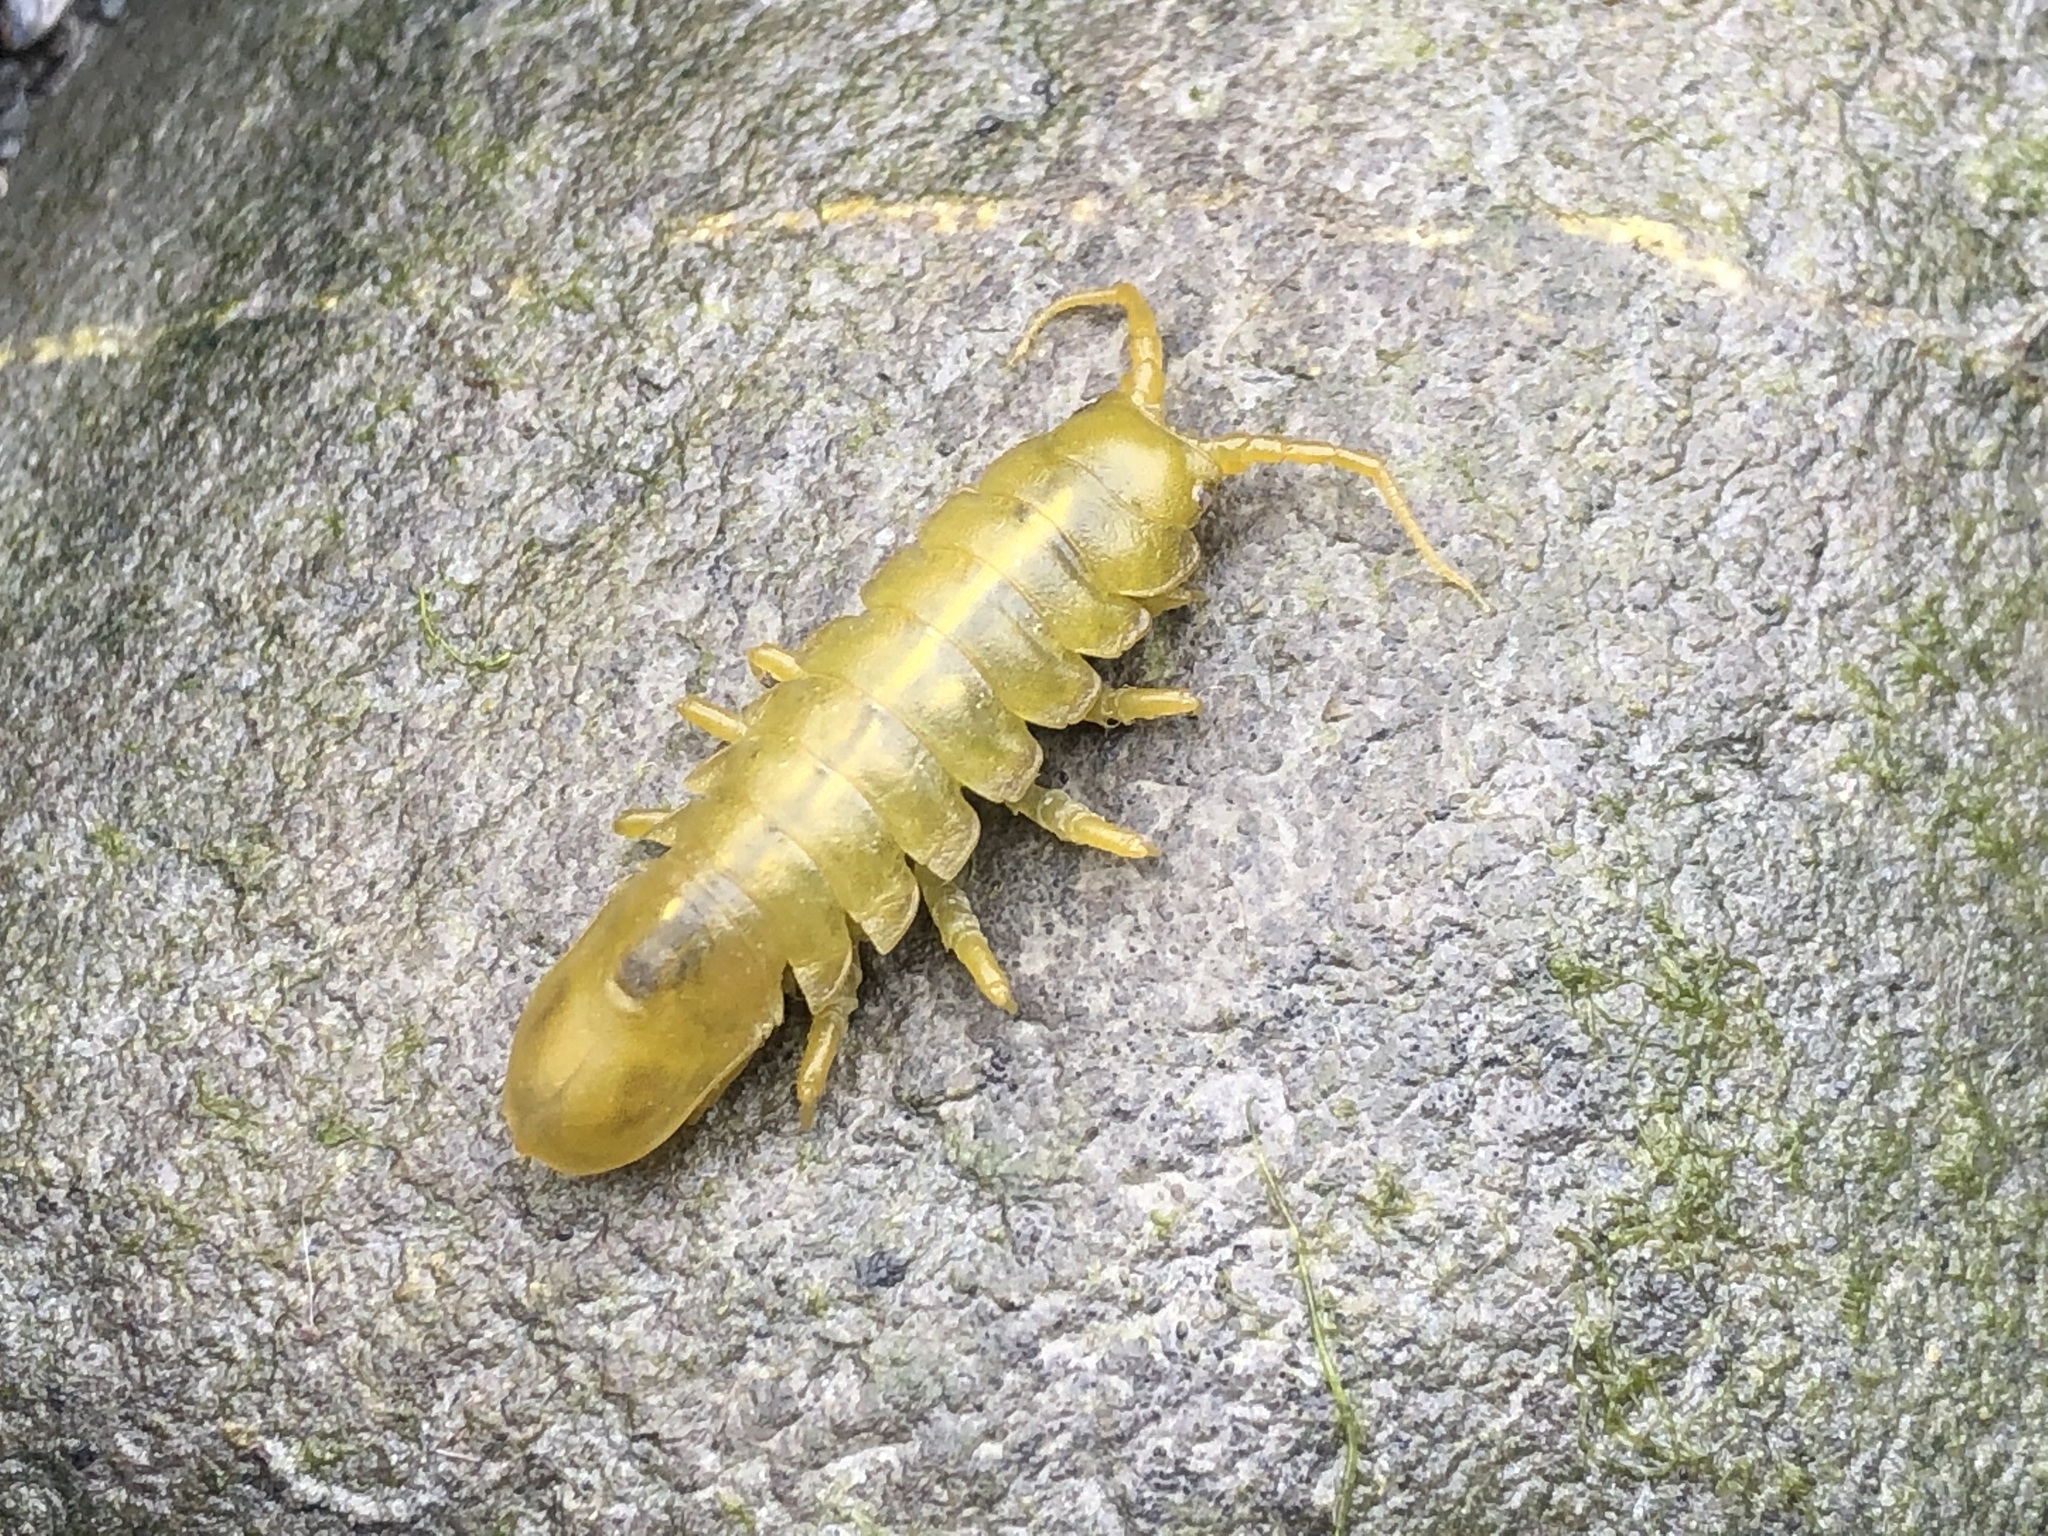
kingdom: Animalia
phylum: Arthropoda
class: Malacostraca
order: Isopoda
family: Idoteidae
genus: Pentidotea
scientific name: Pentidotea wosnesenskii
